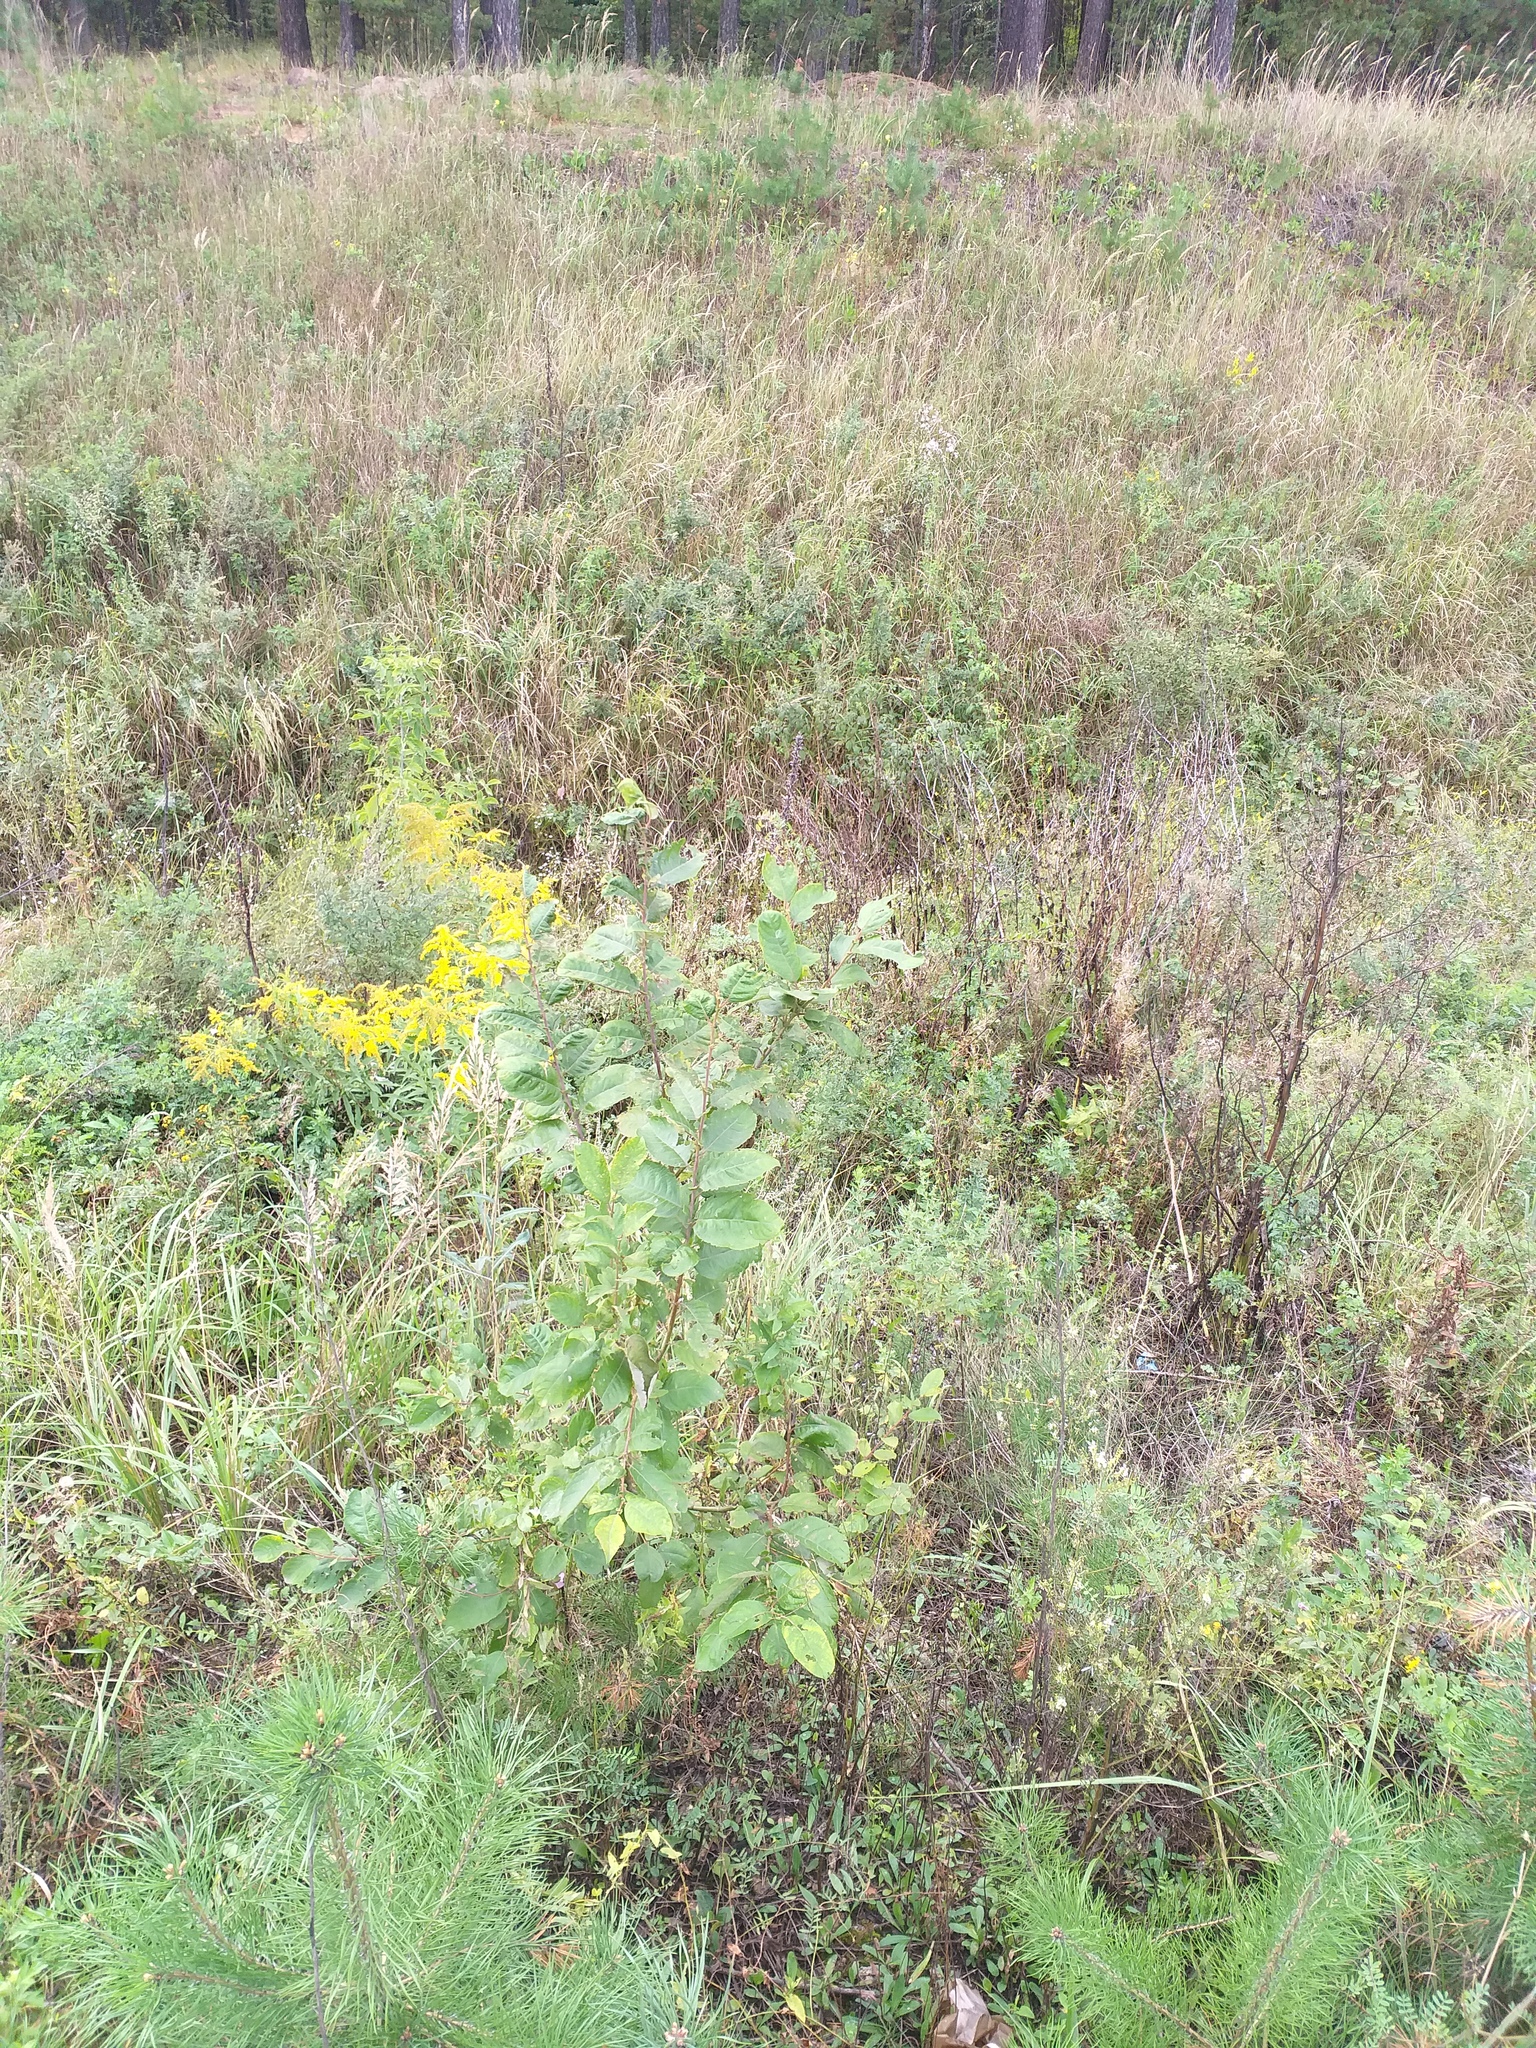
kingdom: Plantae
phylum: Tracheophyta
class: Magnoliopsida
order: Malpighiales
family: Salicaceae
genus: Salix
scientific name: Salix caprea
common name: Goat willow
